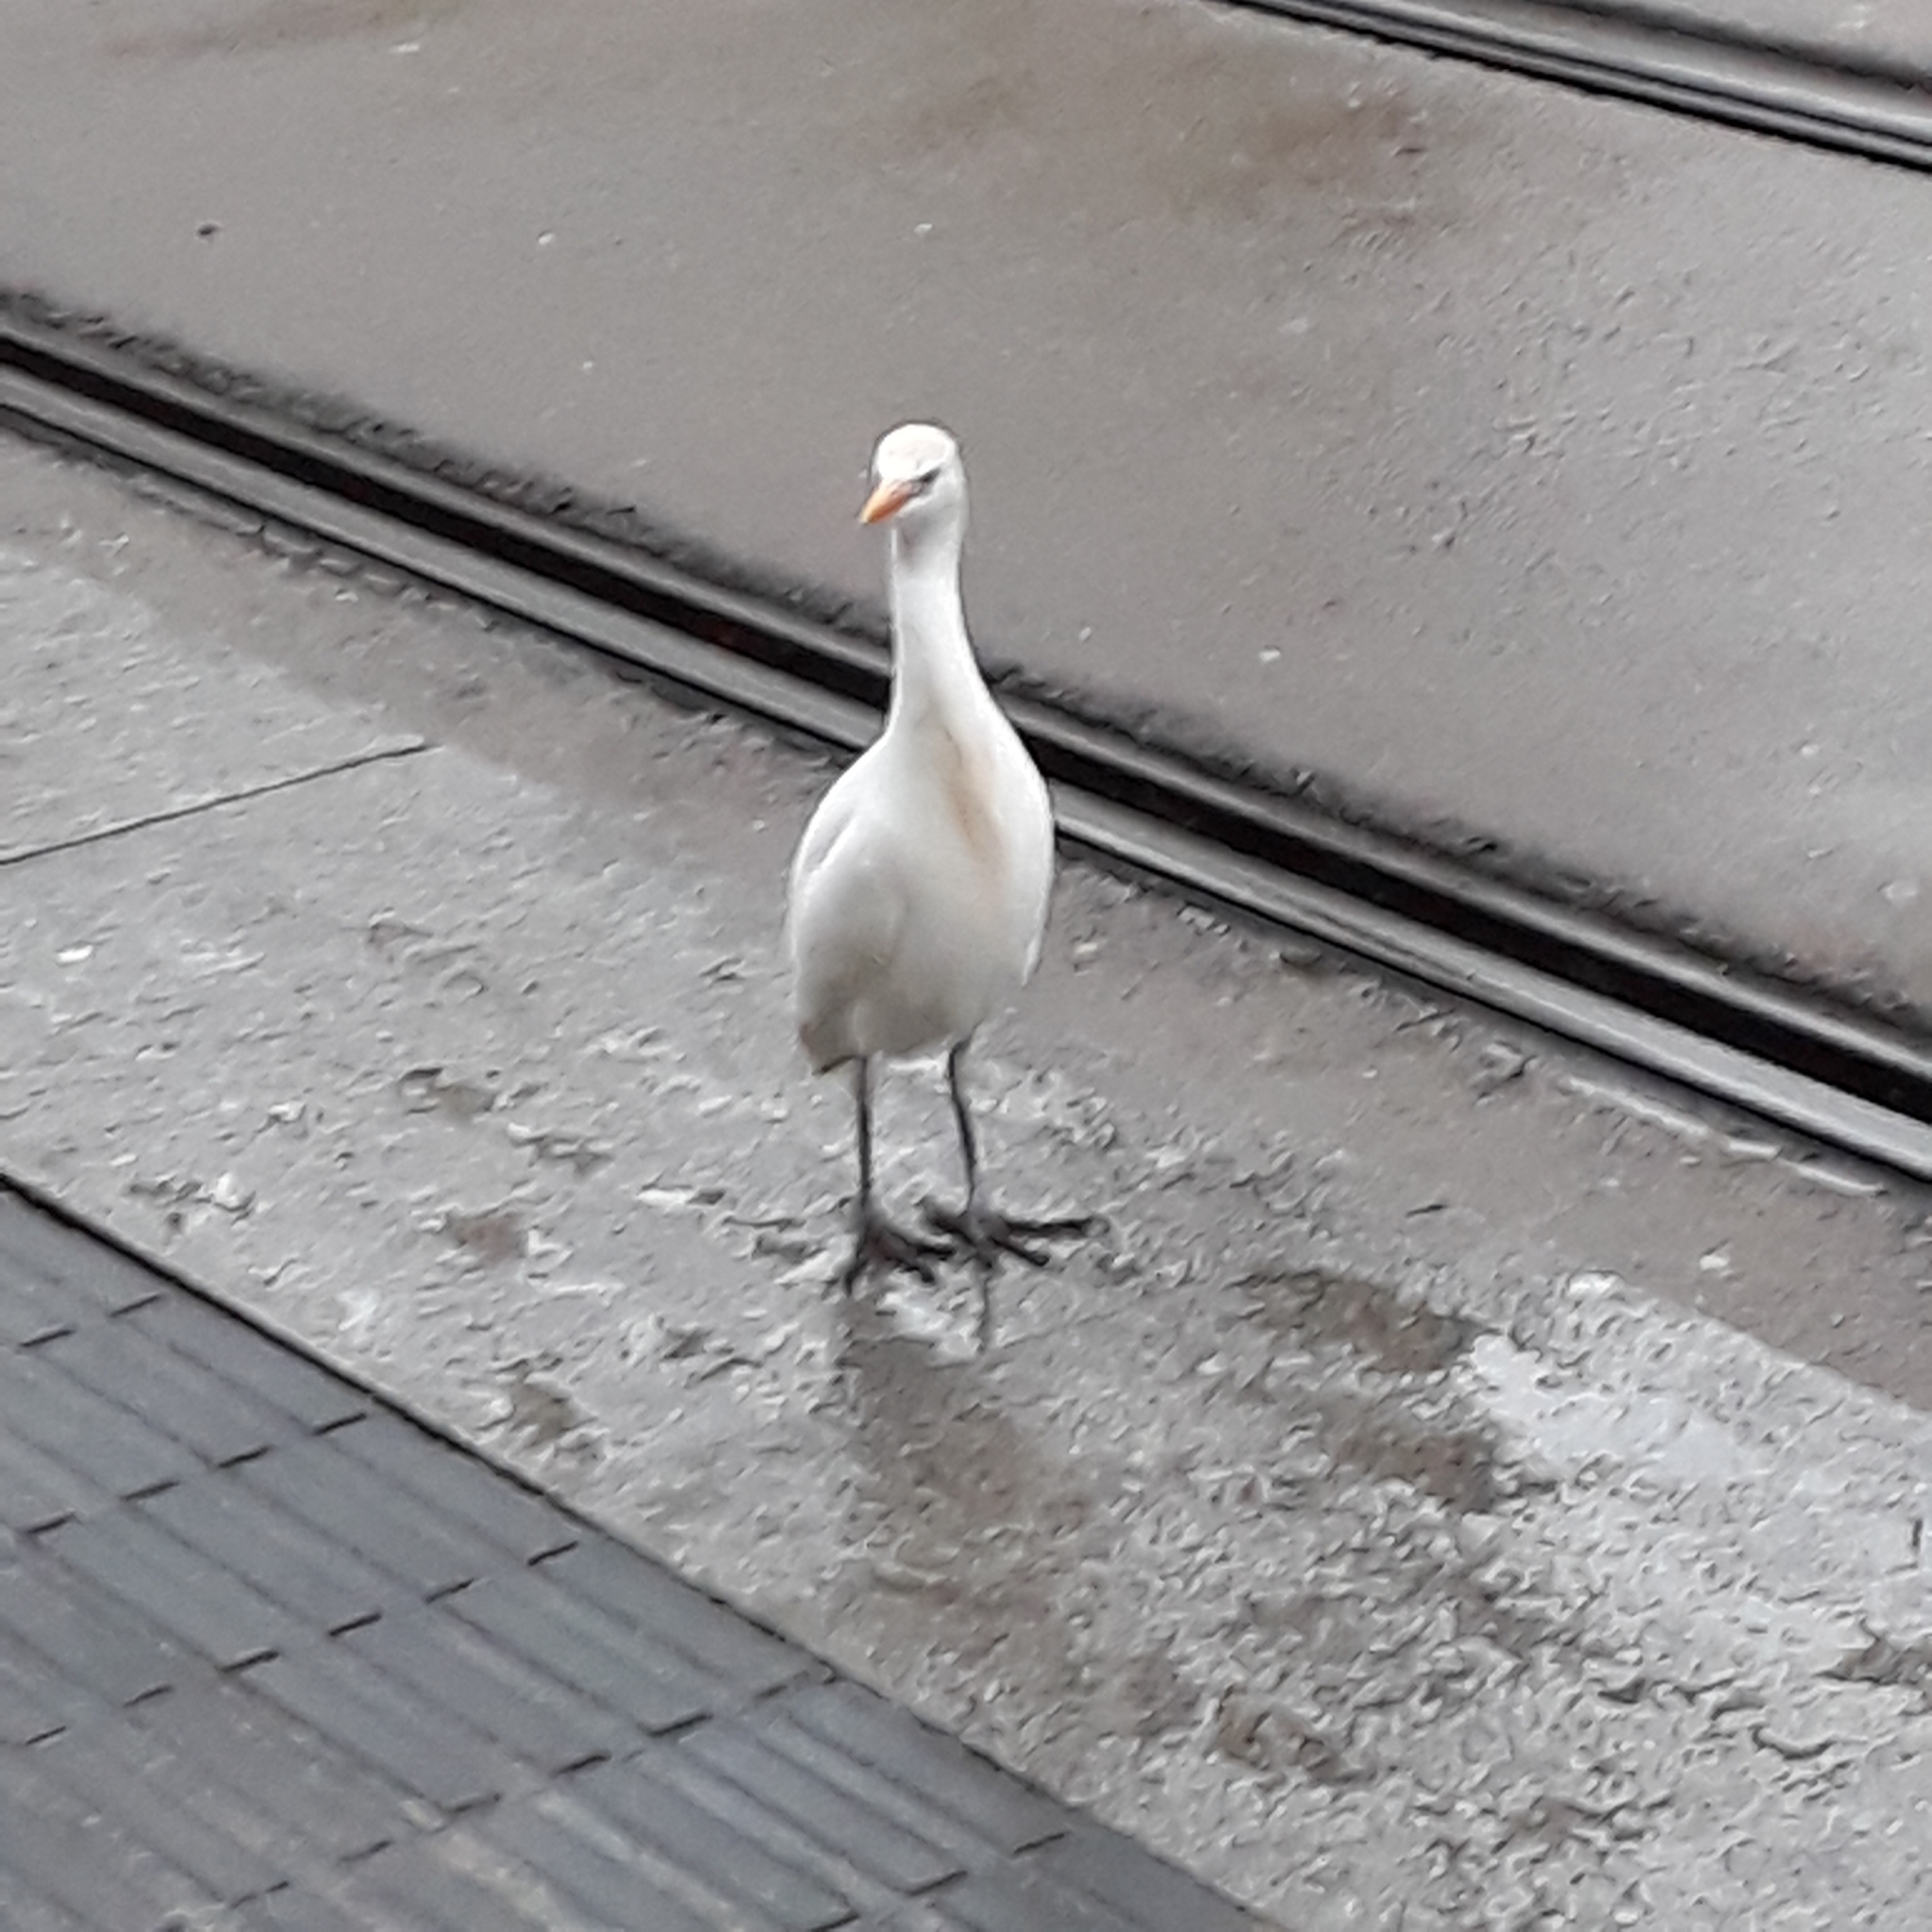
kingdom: Animalia
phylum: Chordata
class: Aves
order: Pelecaniformes
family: Ardeidae
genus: Bubulcus
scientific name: Bubulcus ibis
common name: Cattle egret
